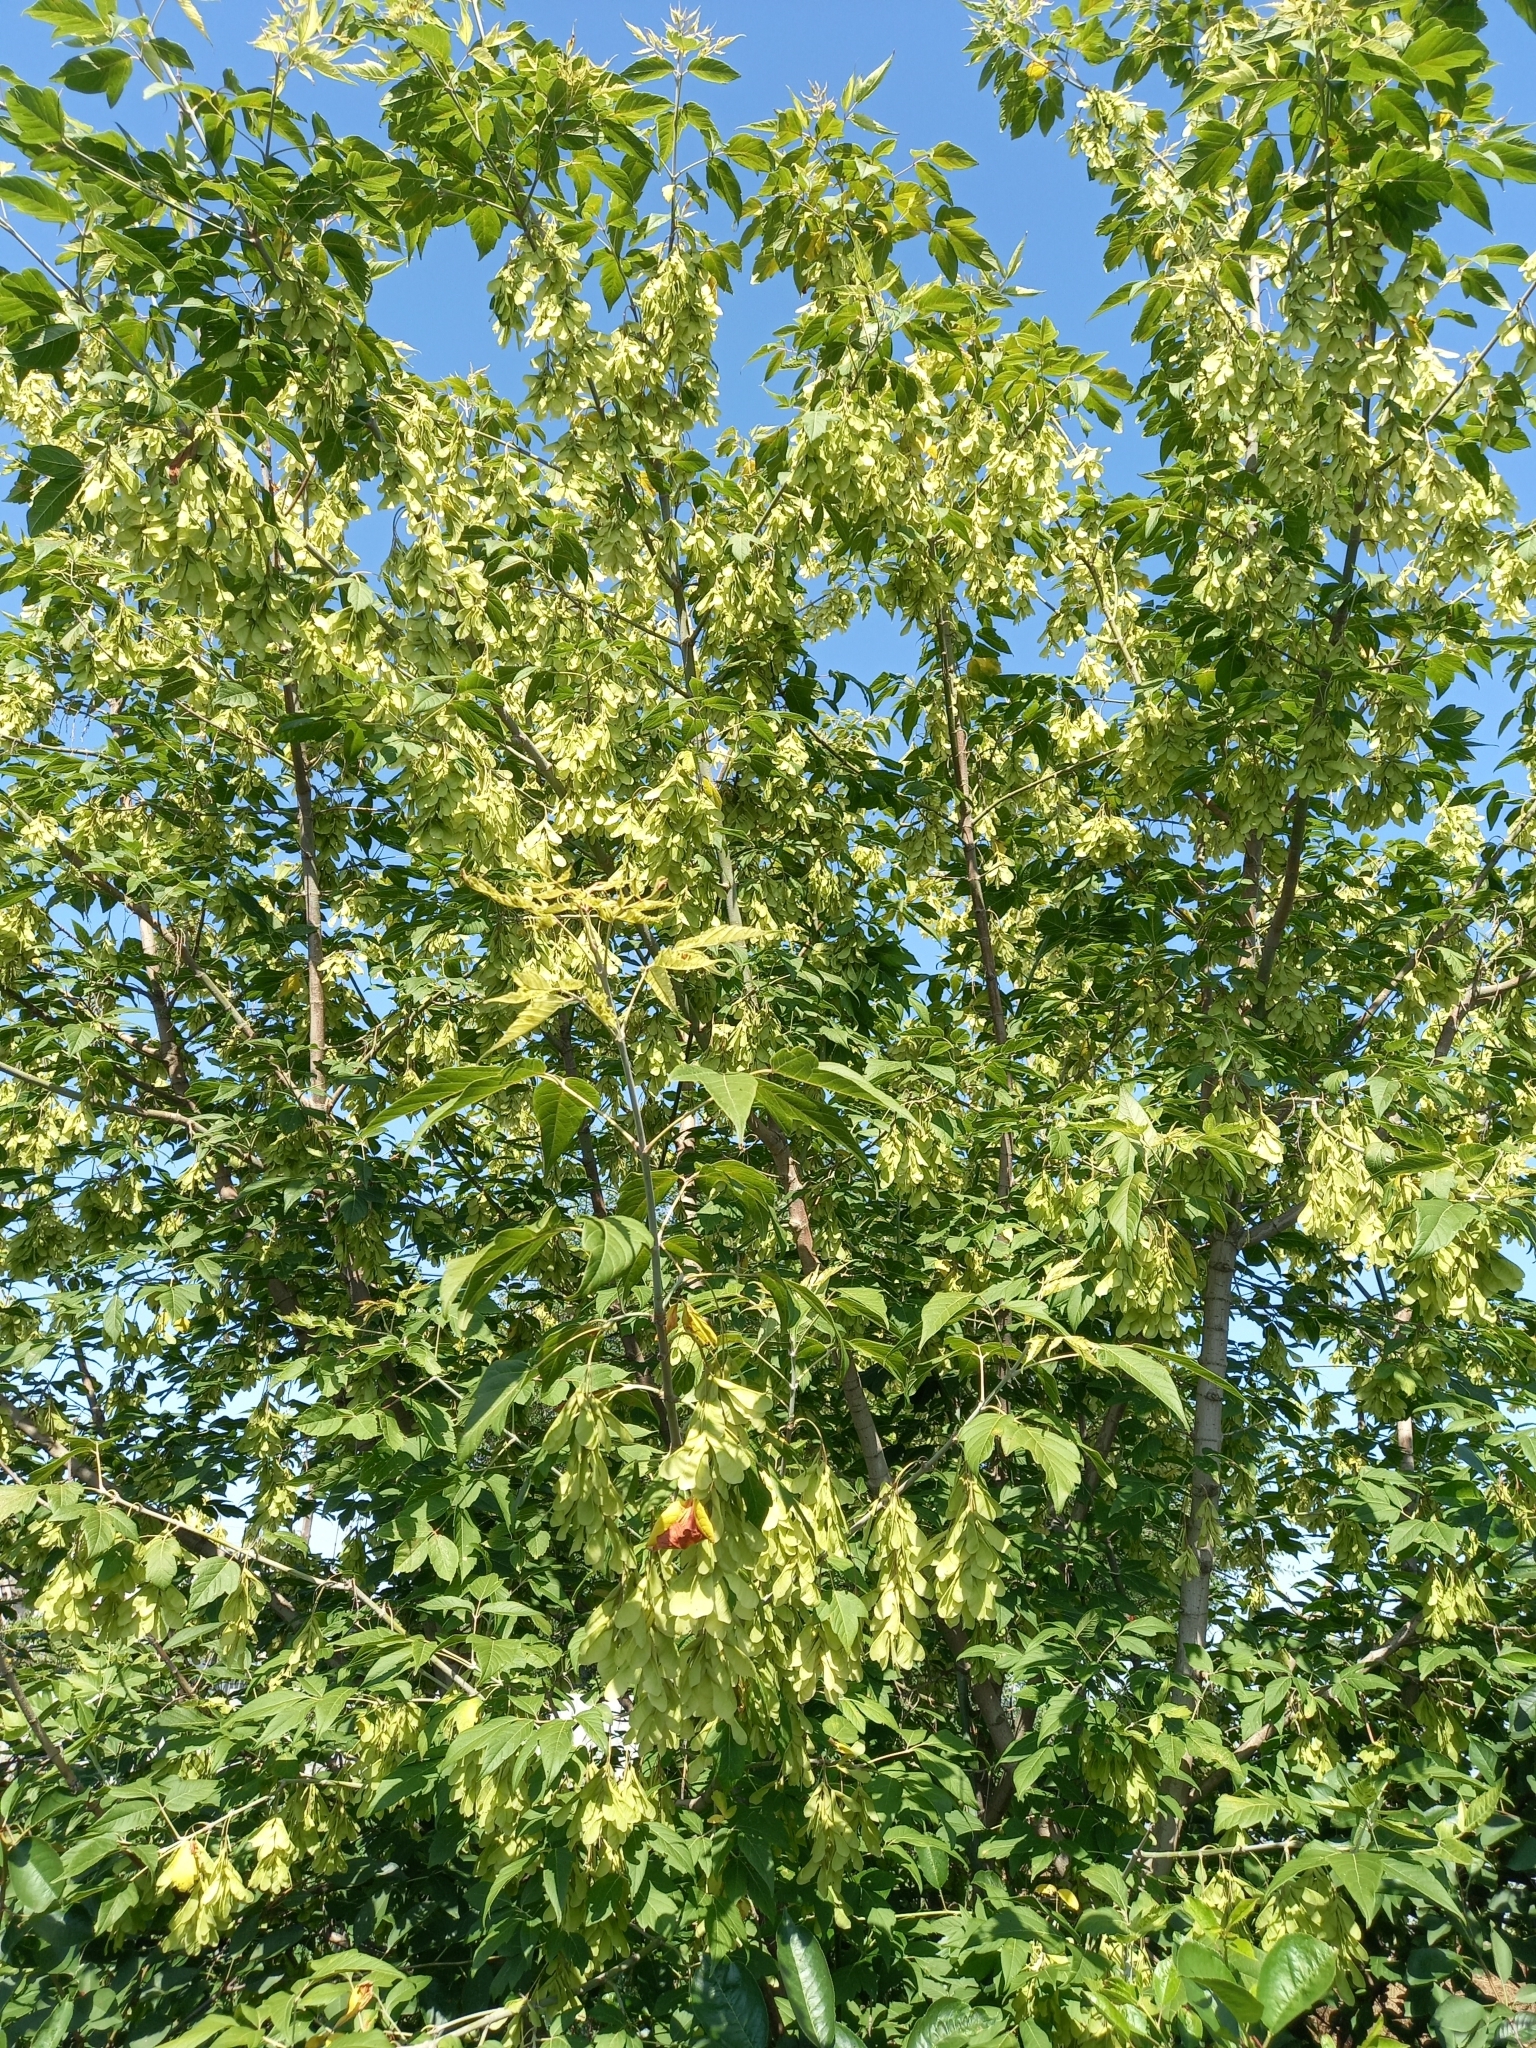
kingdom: Plantae
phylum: Tracheophyta
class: Magnoliopsida
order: Sapindales
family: Sapindaceae
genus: Acer
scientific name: Acer negundo
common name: Ashleaf maple
